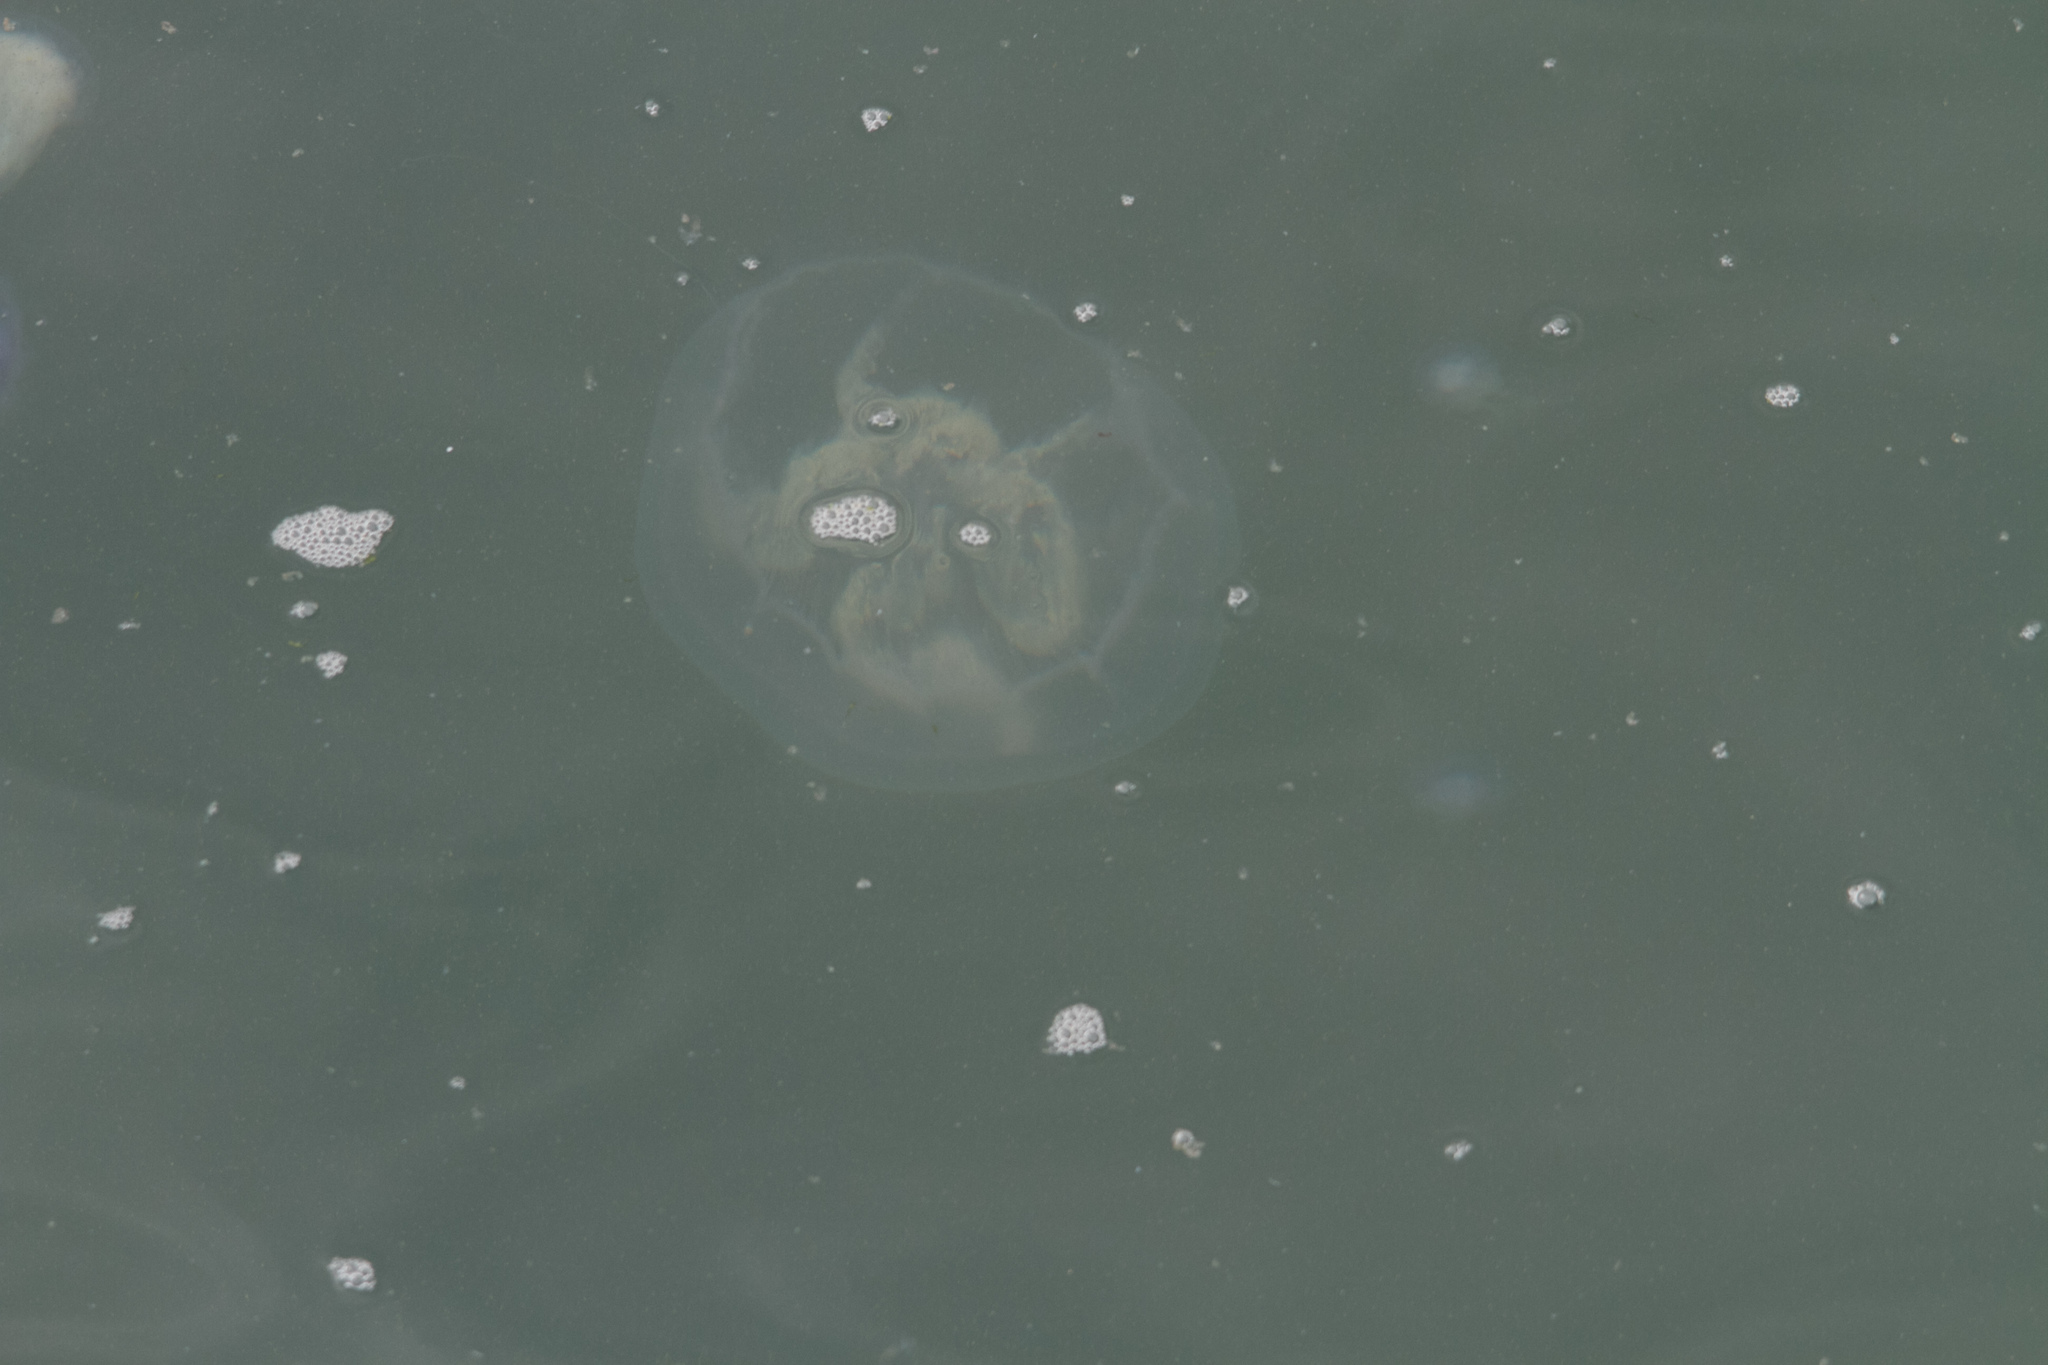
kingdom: Animalia
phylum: Cnidaria
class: Scyphozoa
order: Semaeostomeae
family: Ulmaridae
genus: Aurelia
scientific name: Aurelia aurita
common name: Moon jellyfish
